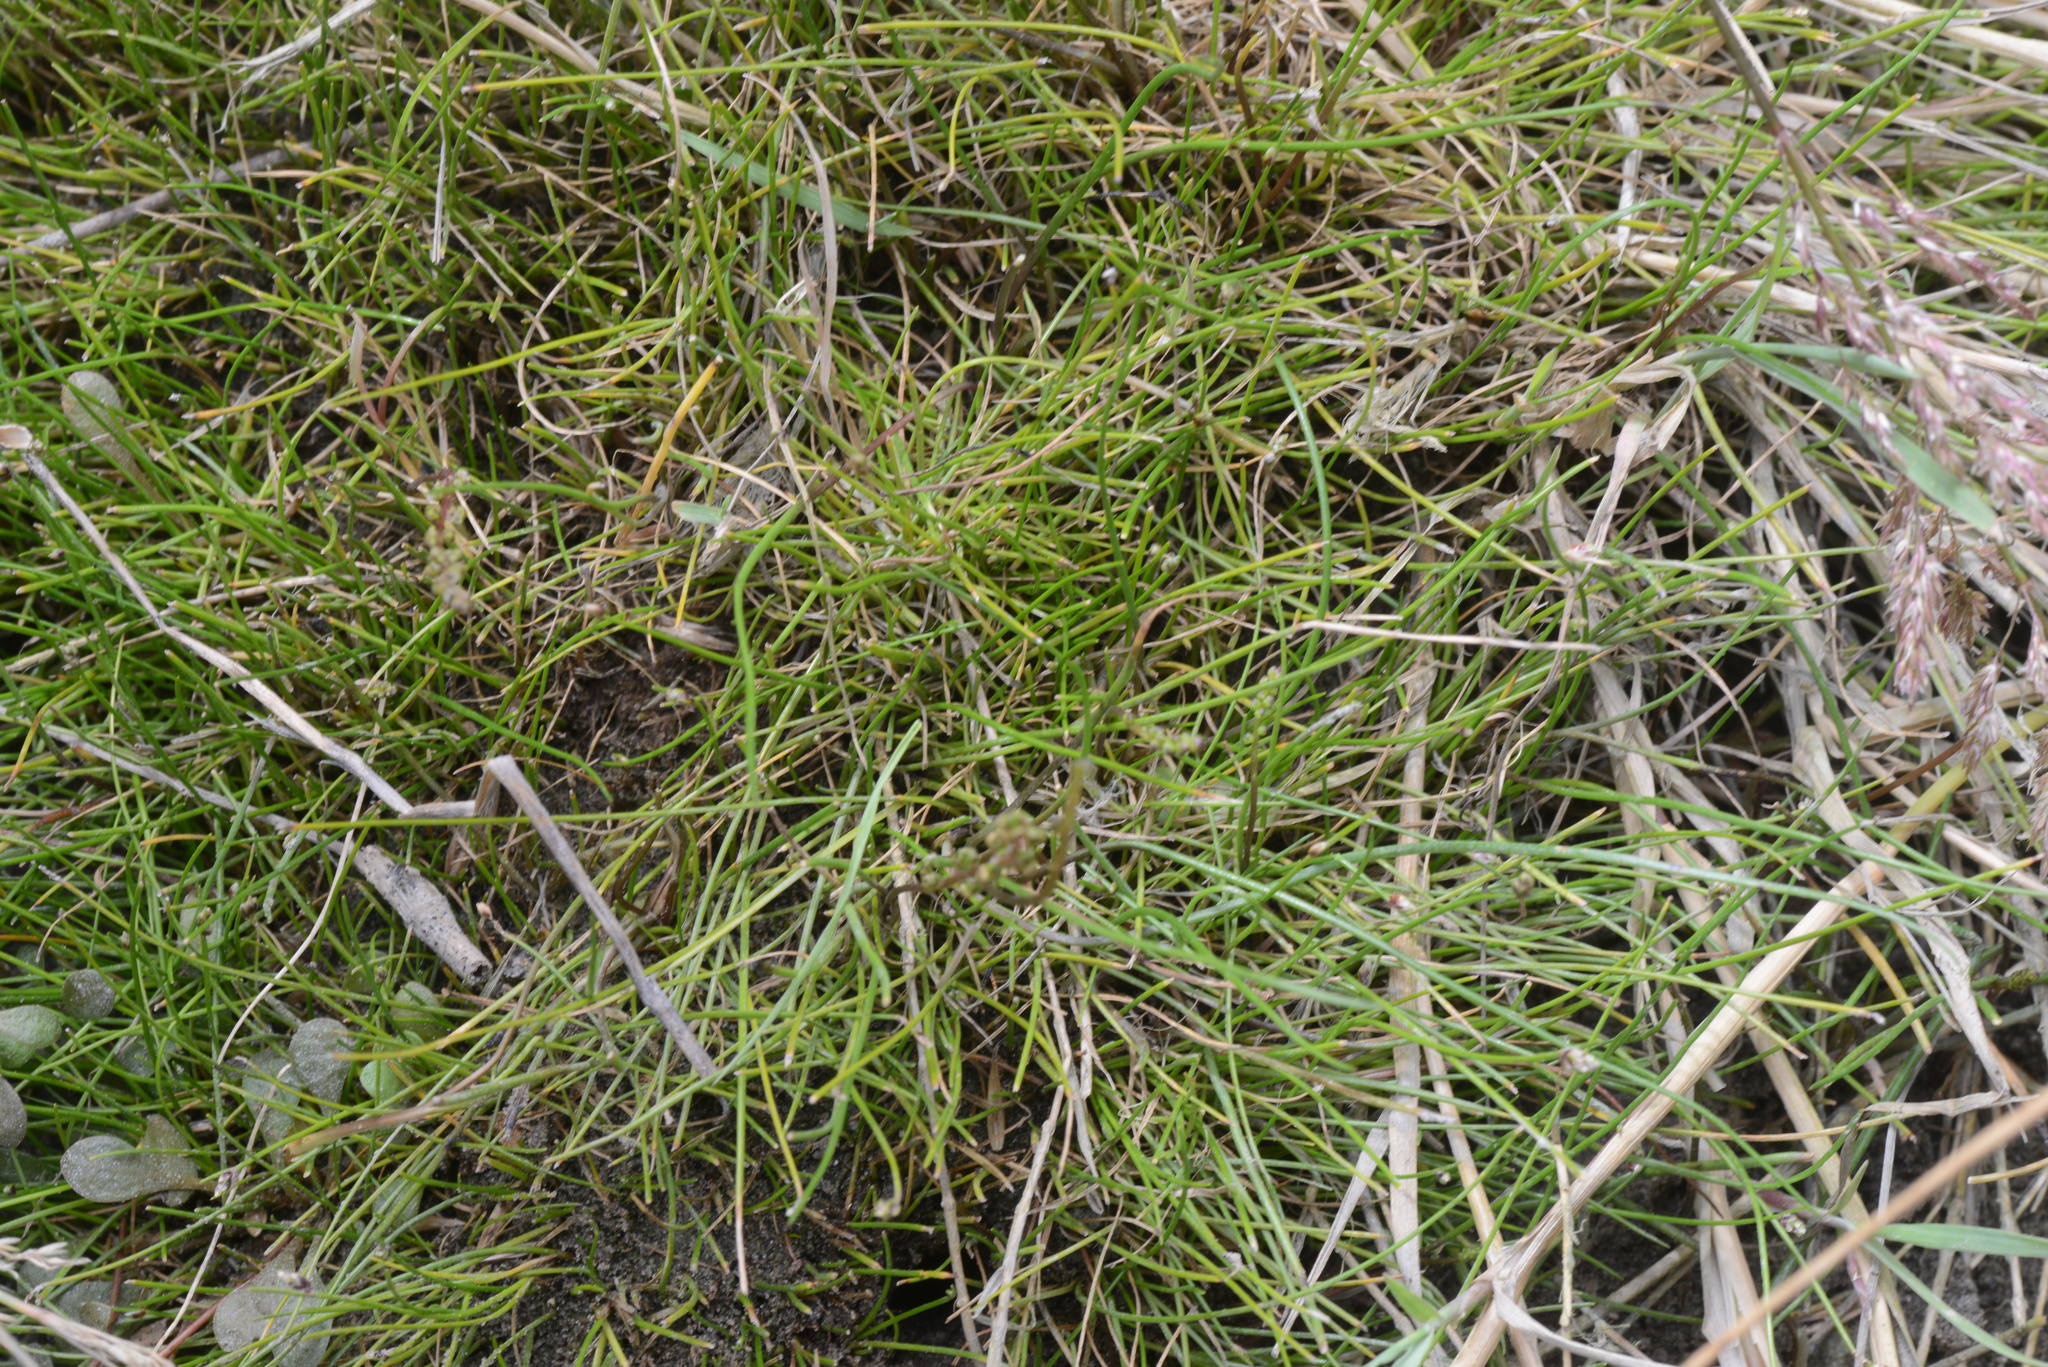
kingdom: Plantae
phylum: Tracheophyta
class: Liliopsida
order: Poales
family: Cyperaceae
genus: Isolepis
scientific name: Isolepis cernua
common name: Slender club-rush
